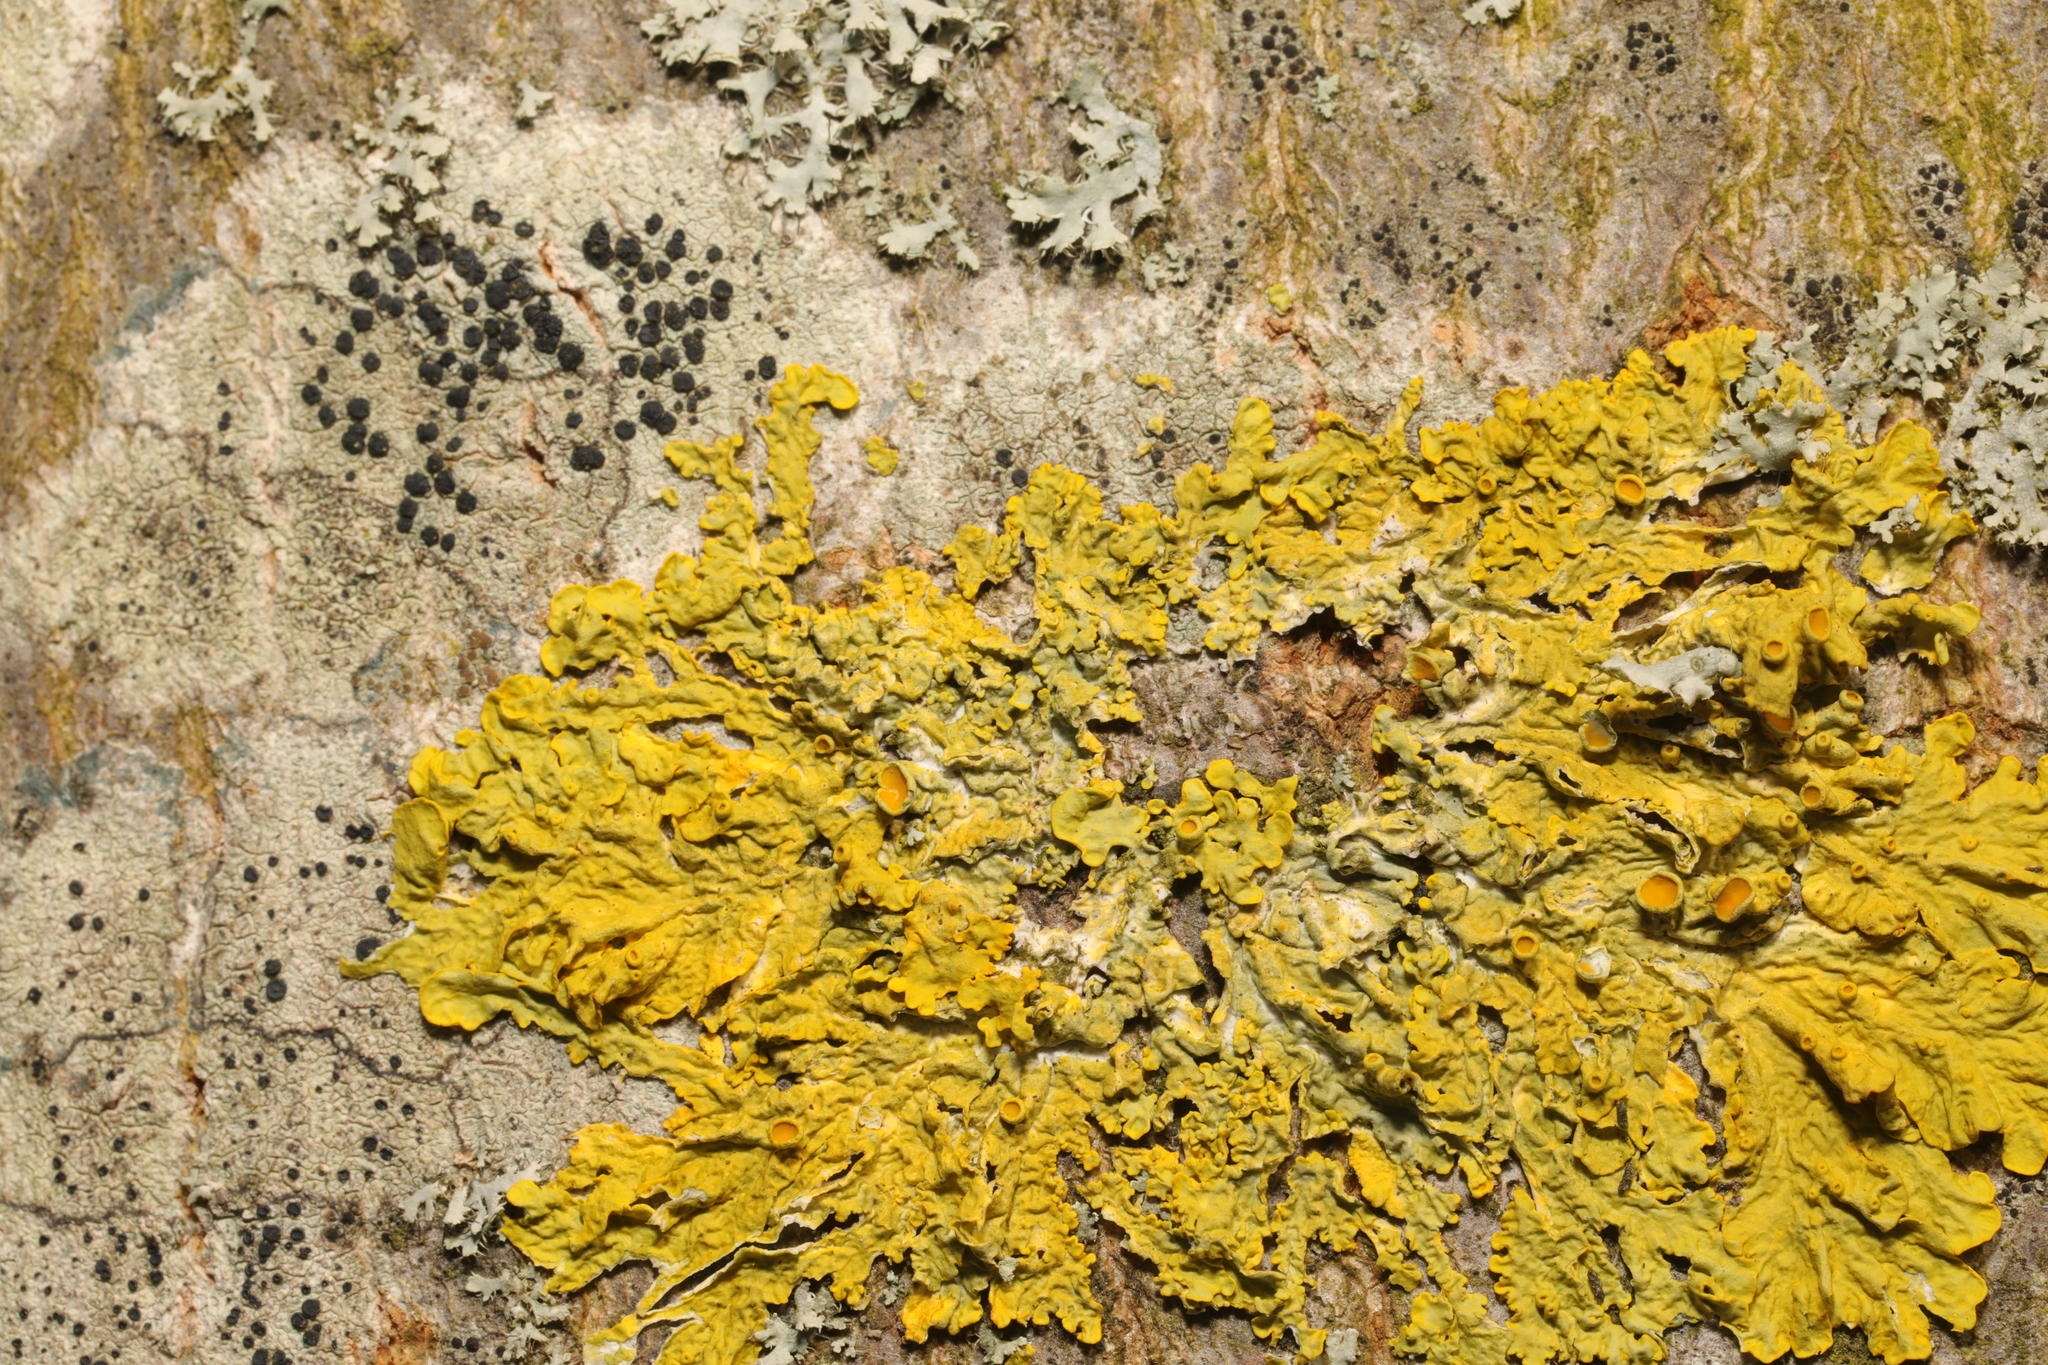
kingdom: Fungi
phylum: Ascomycota
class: Lecanoromycetes
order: Lecanorales
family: Lecanoraceae
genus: Lecidella
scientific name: Lecidella elaeochroma
